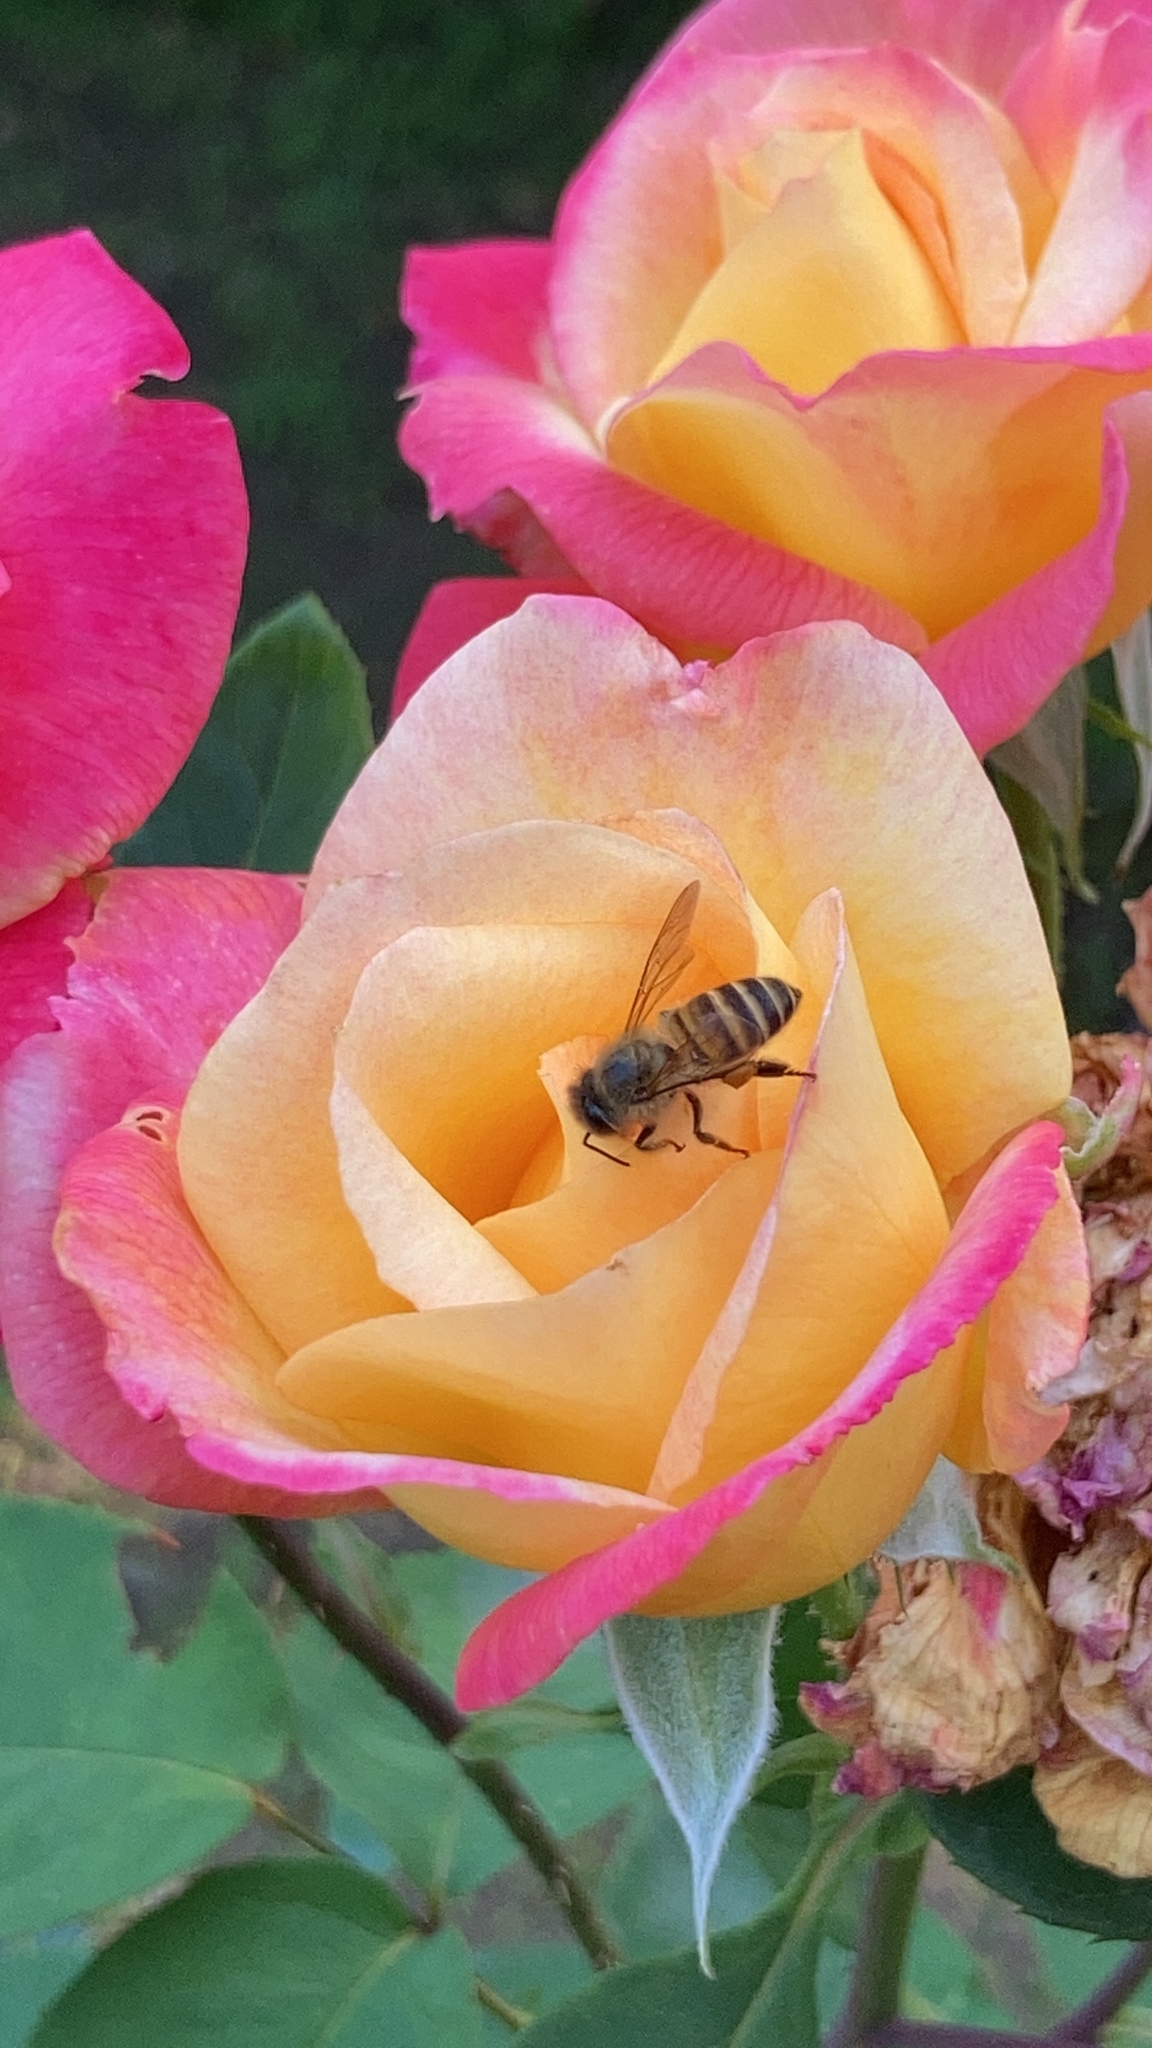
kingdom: Animalia
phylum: Arthropoda
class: Insecta
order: Hymenoptera
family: Apidae
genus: Apis
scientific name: Apis cerana
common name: Honey bee
